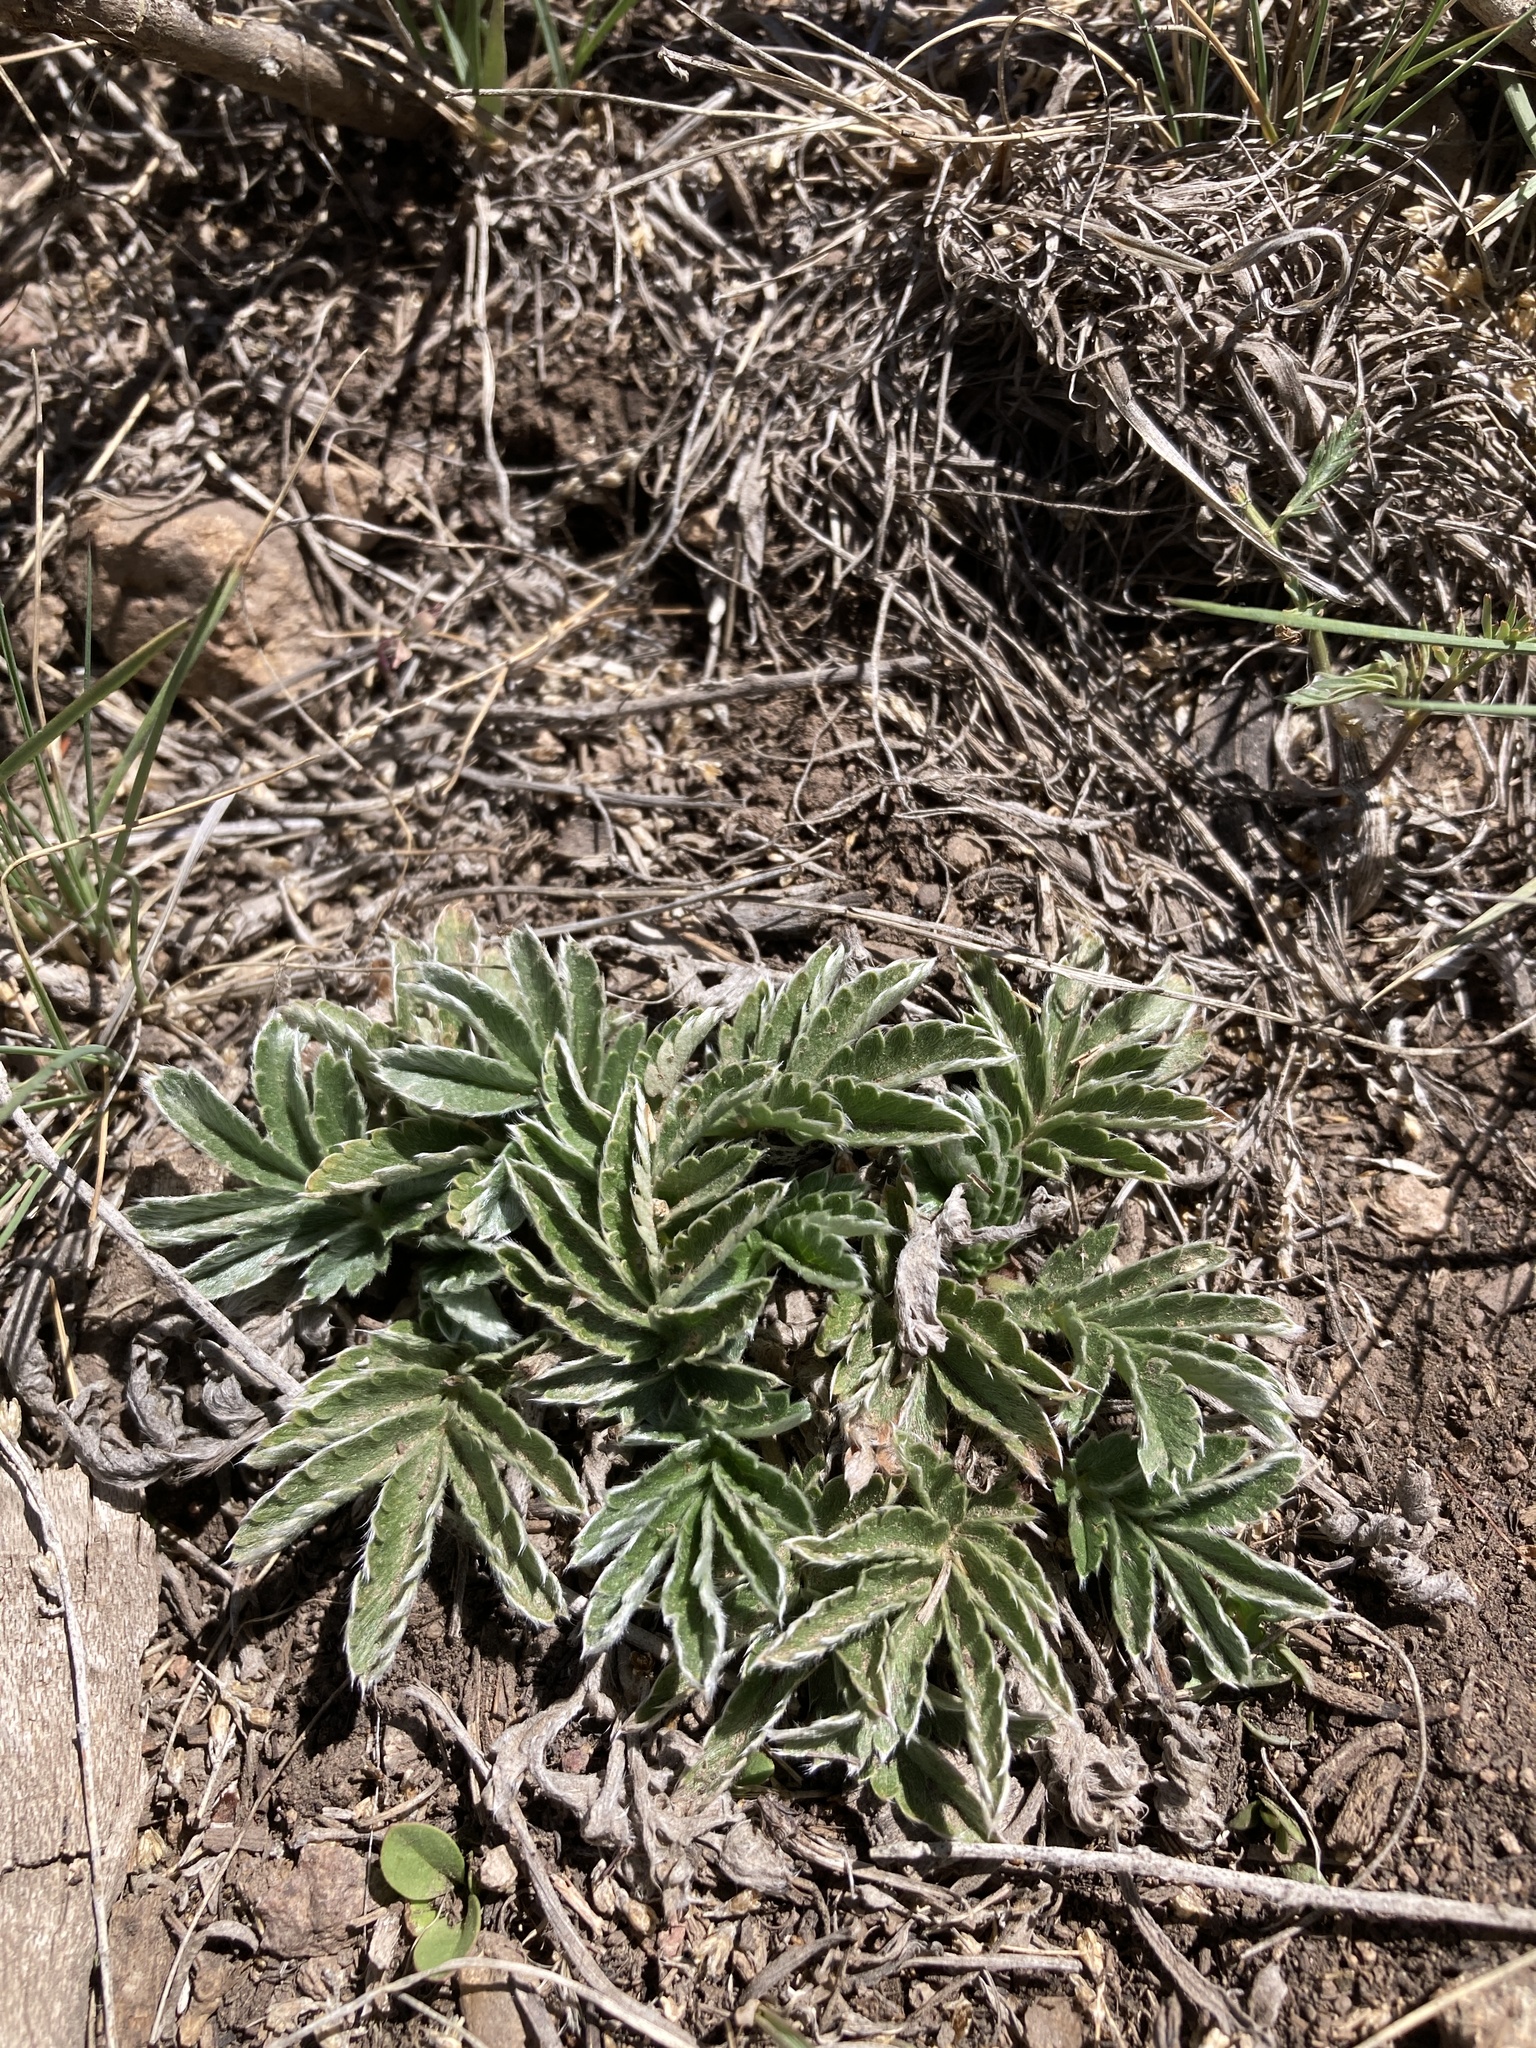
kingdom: Plantae
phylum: Tracheophyta
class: Magnoliopsida
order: Rosales
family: Rosaceae
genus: Potentilla
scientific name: Potentilla hippiana
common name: Woolly cinquefoil
